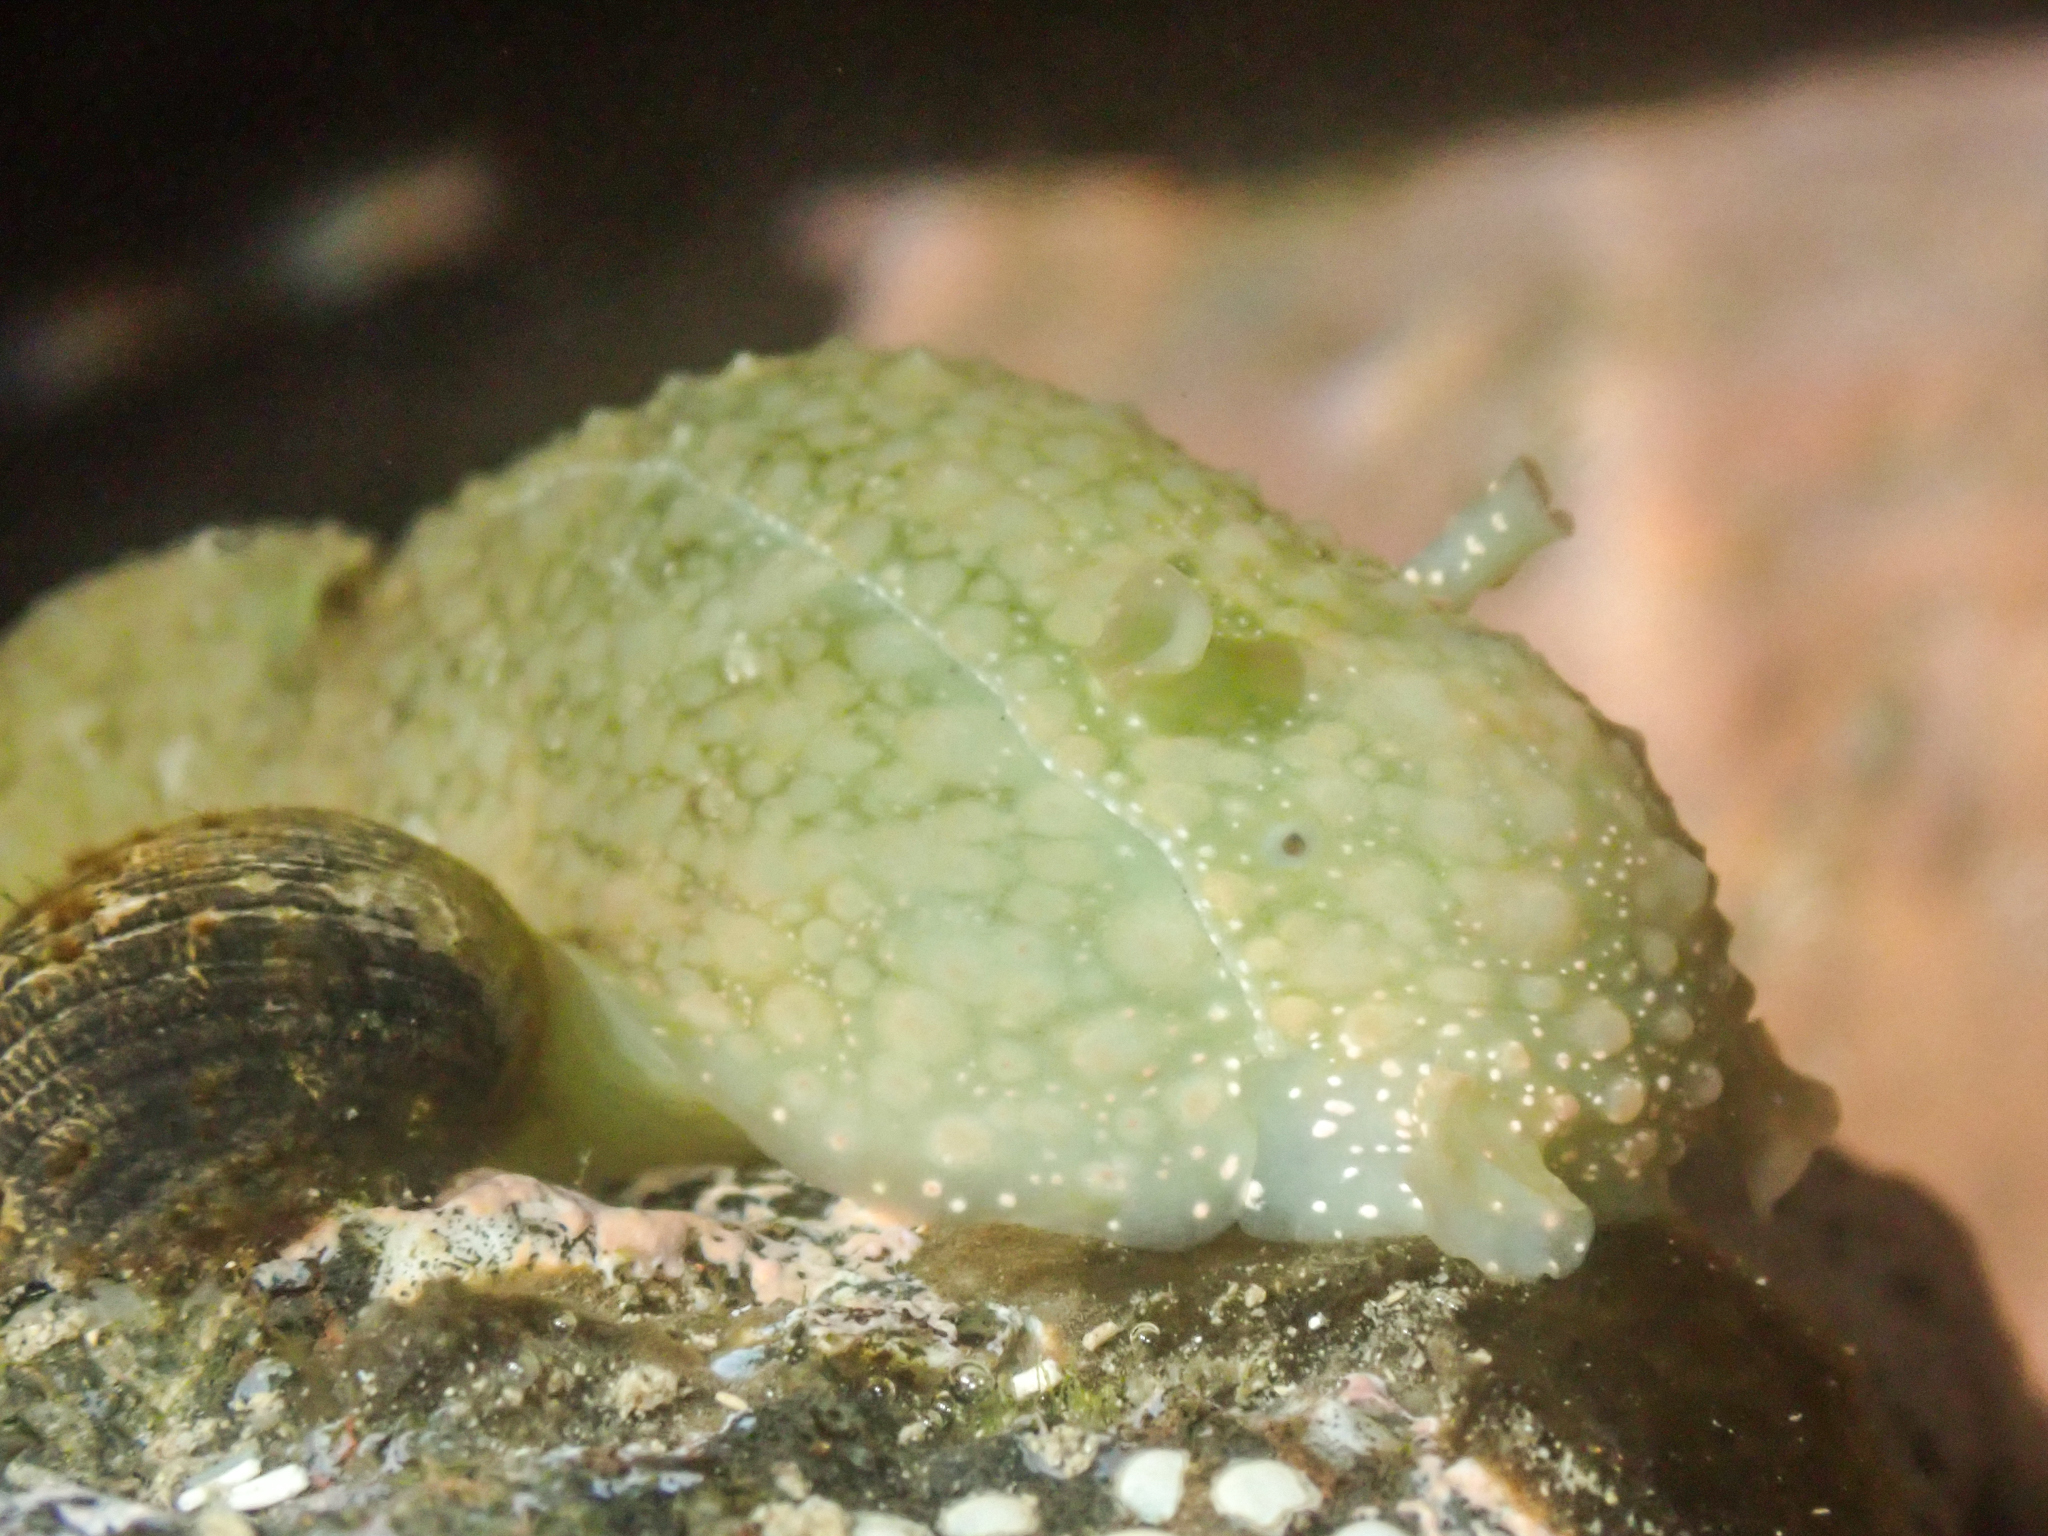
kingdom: Animalia
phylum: Mollusca
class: Gastropoda
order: Aplysiida
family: Aplysiidae
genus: Dolabrifera
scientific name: Dolabrifera nicaraguana
